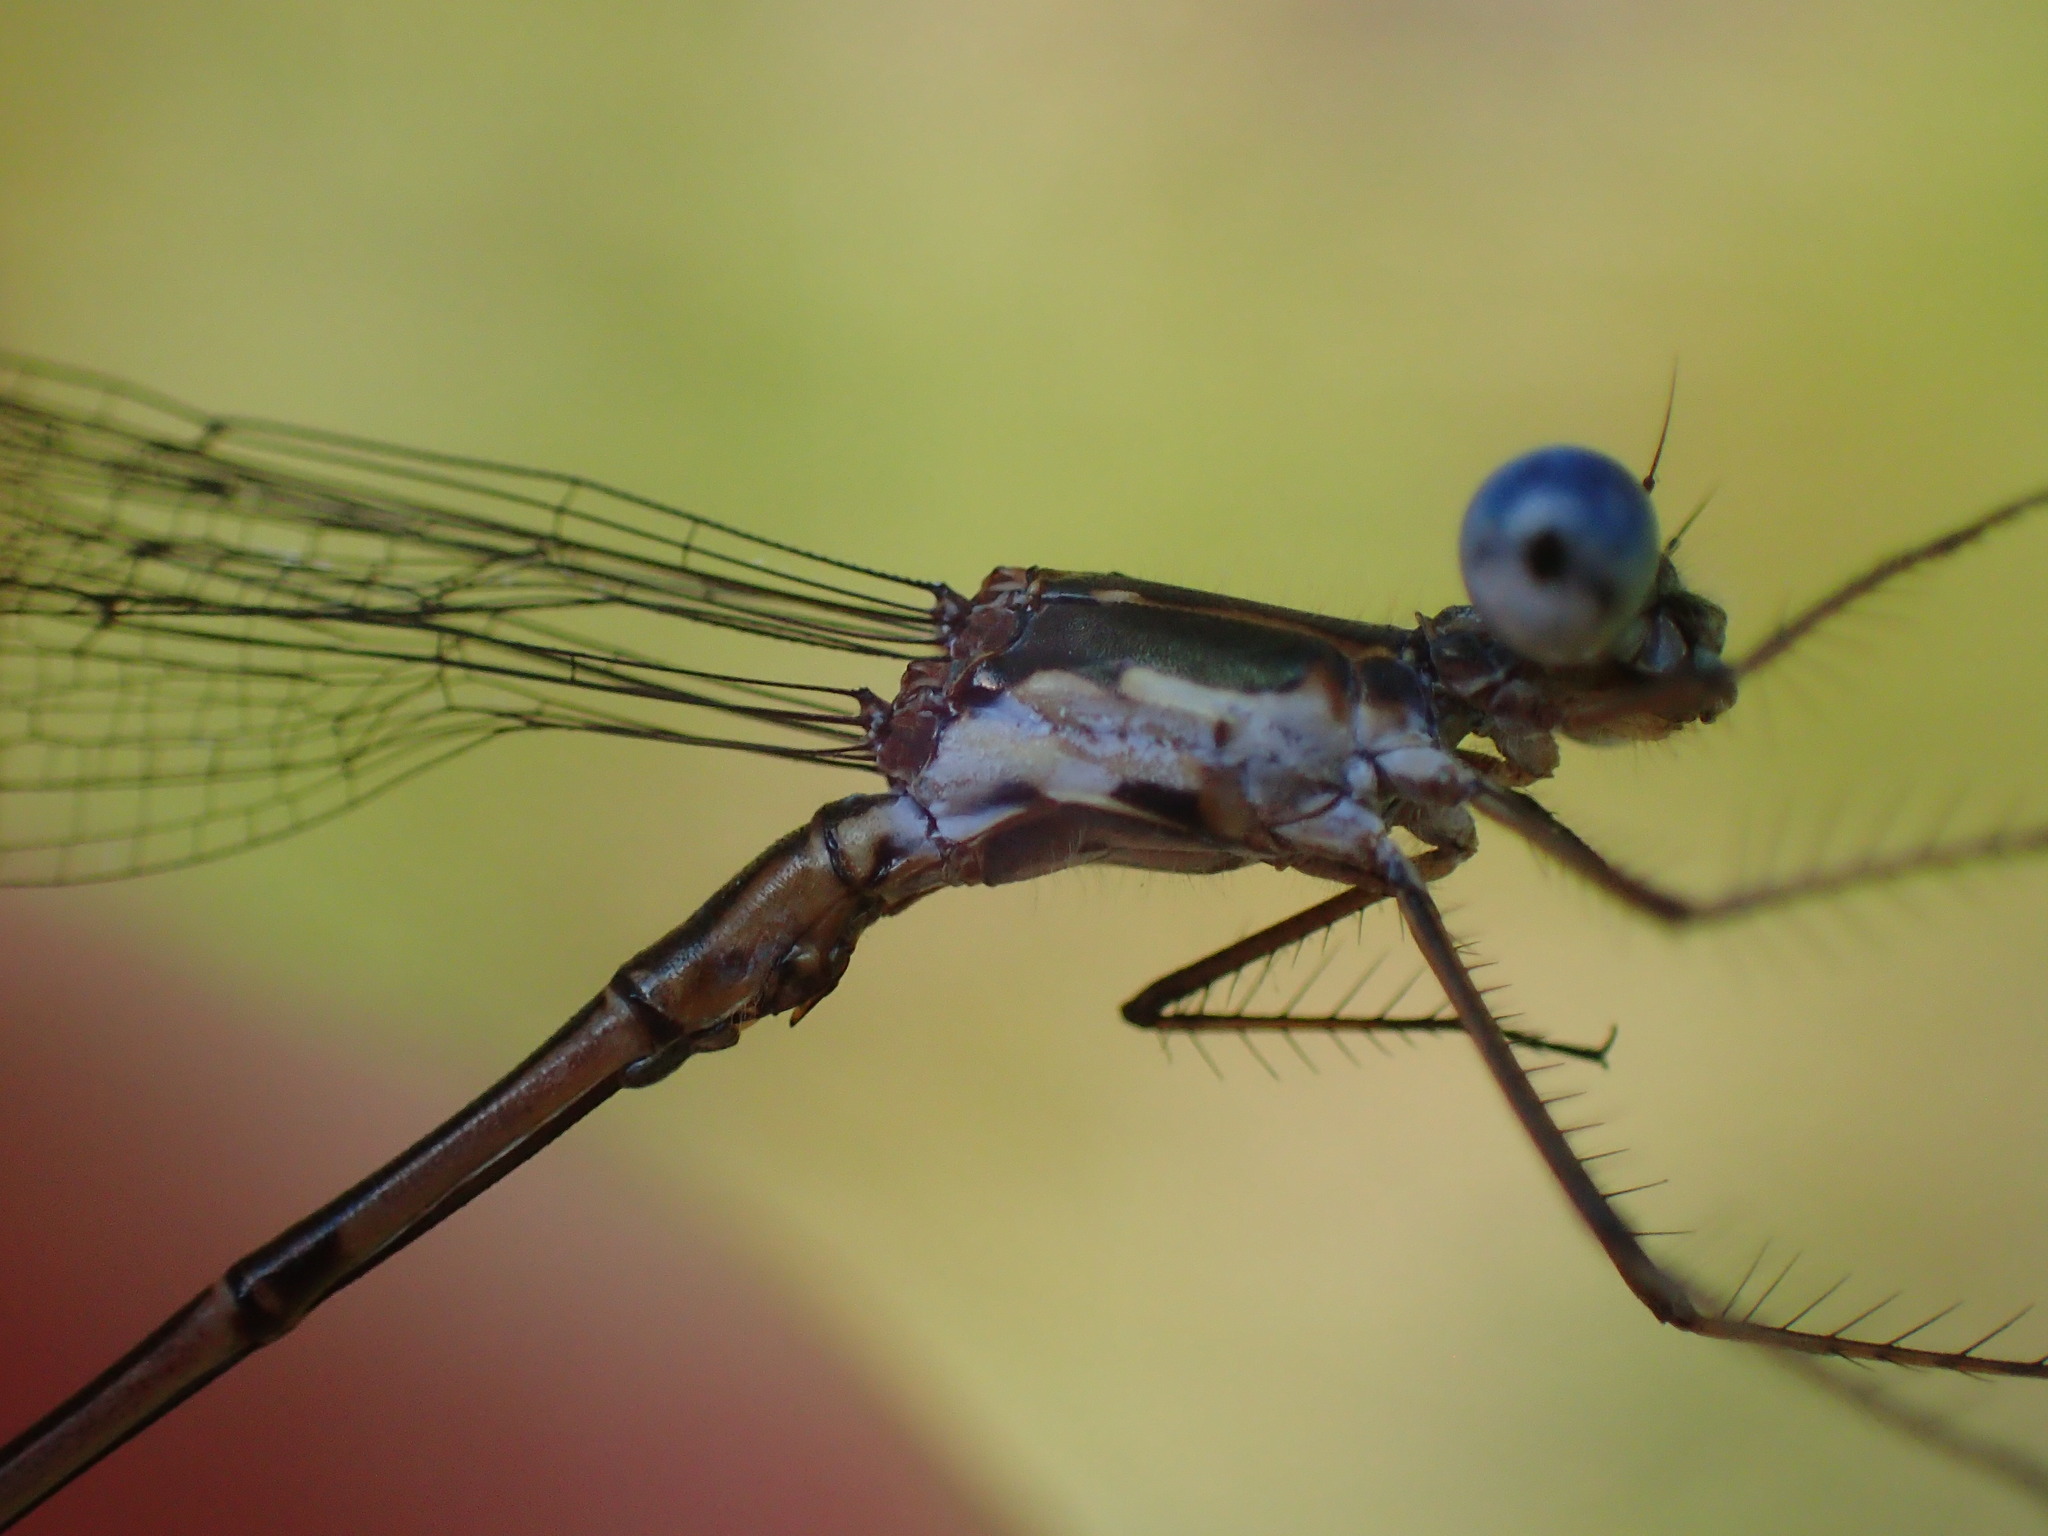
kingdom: Animalia
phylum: Arthropoda
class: Insecta
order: Odonata
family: Lestidae
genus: Lestes
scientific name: Lestes congener
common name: Spotted spreadwing
